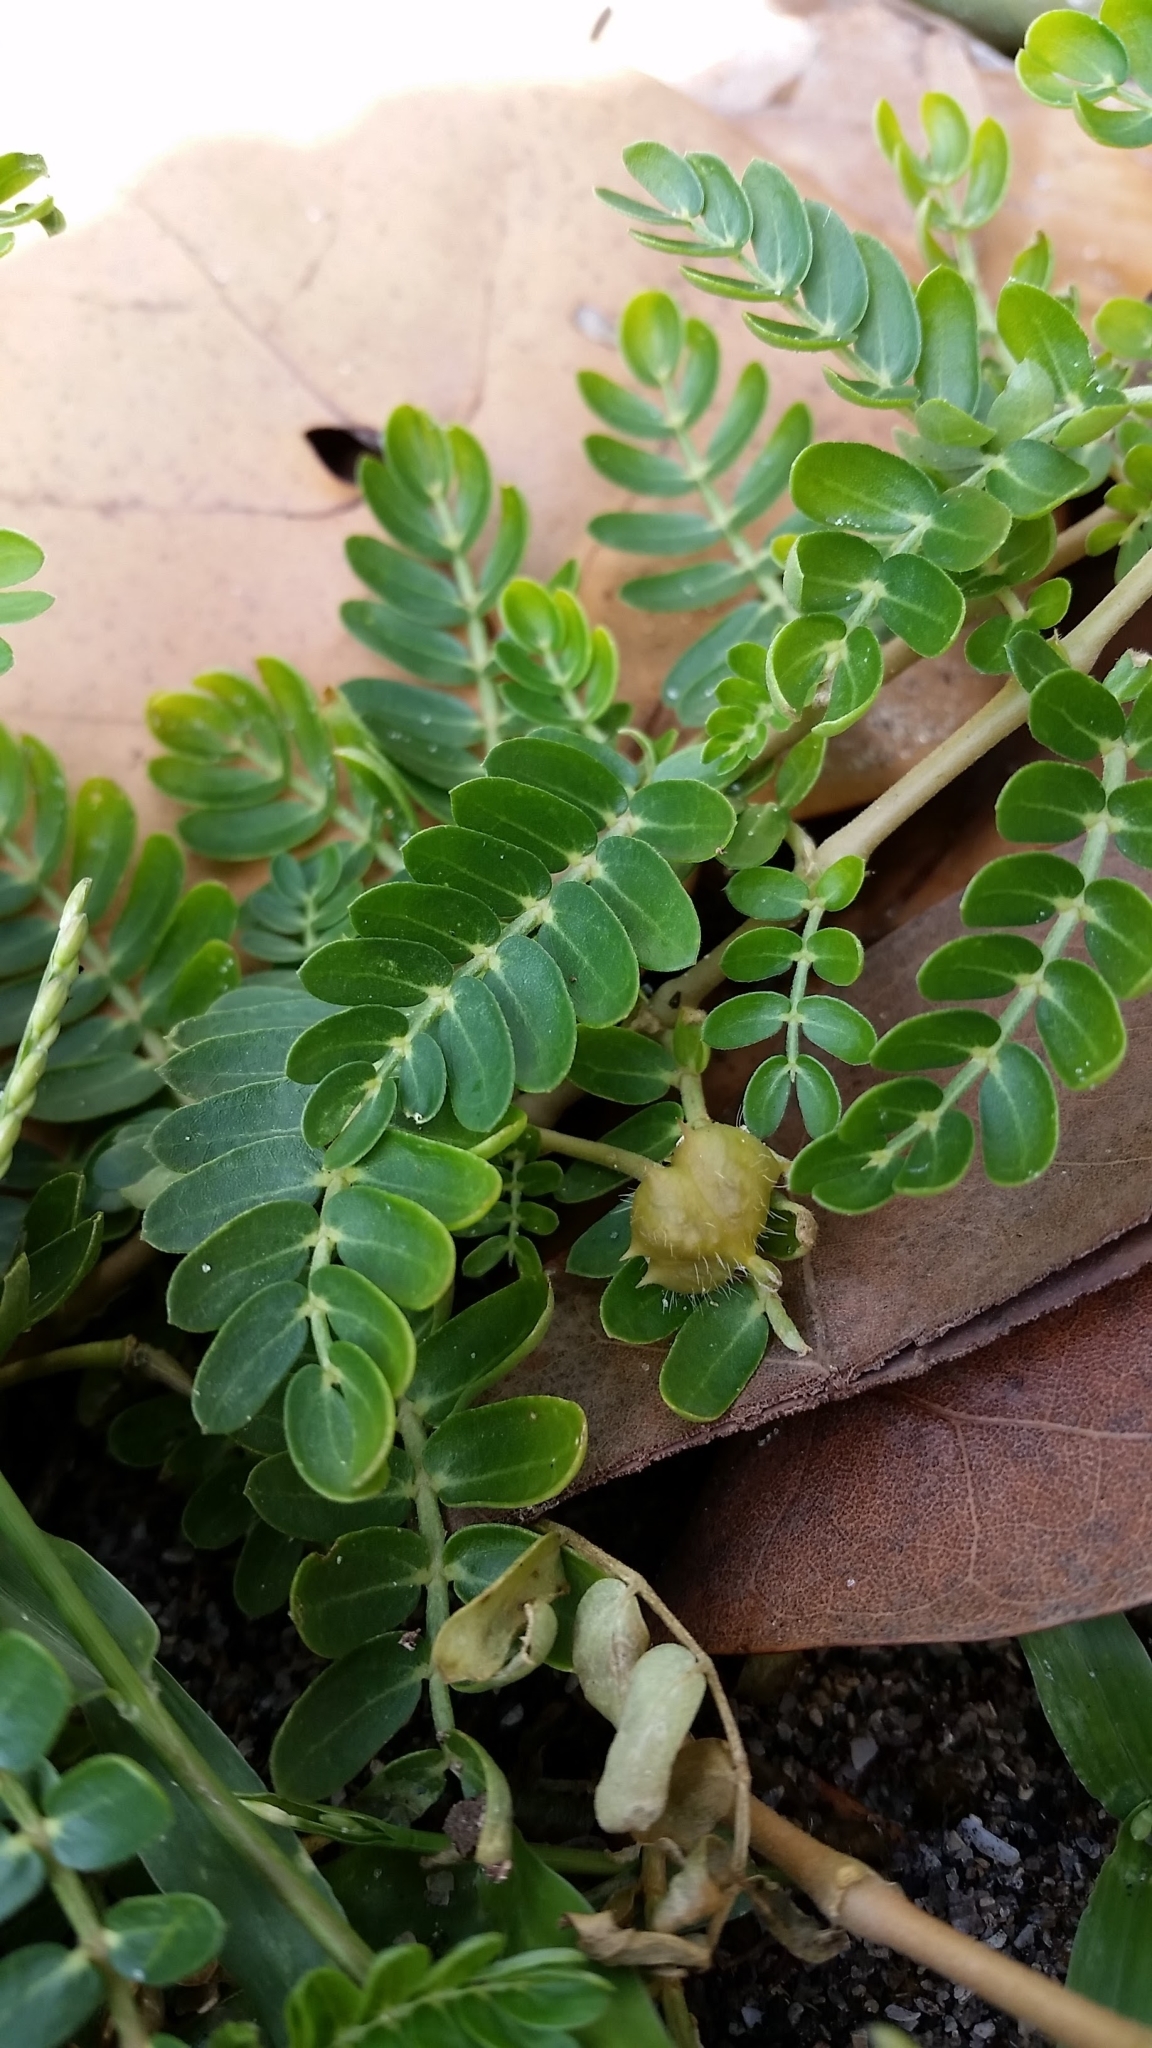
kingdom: Plantae
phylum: Tracheophyta
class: Magnoliopsida
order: Zygophyllales
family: Zygophyllaceae
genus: Tribulus
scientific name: Tribulus cistoides
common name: Jamaican feverplant
